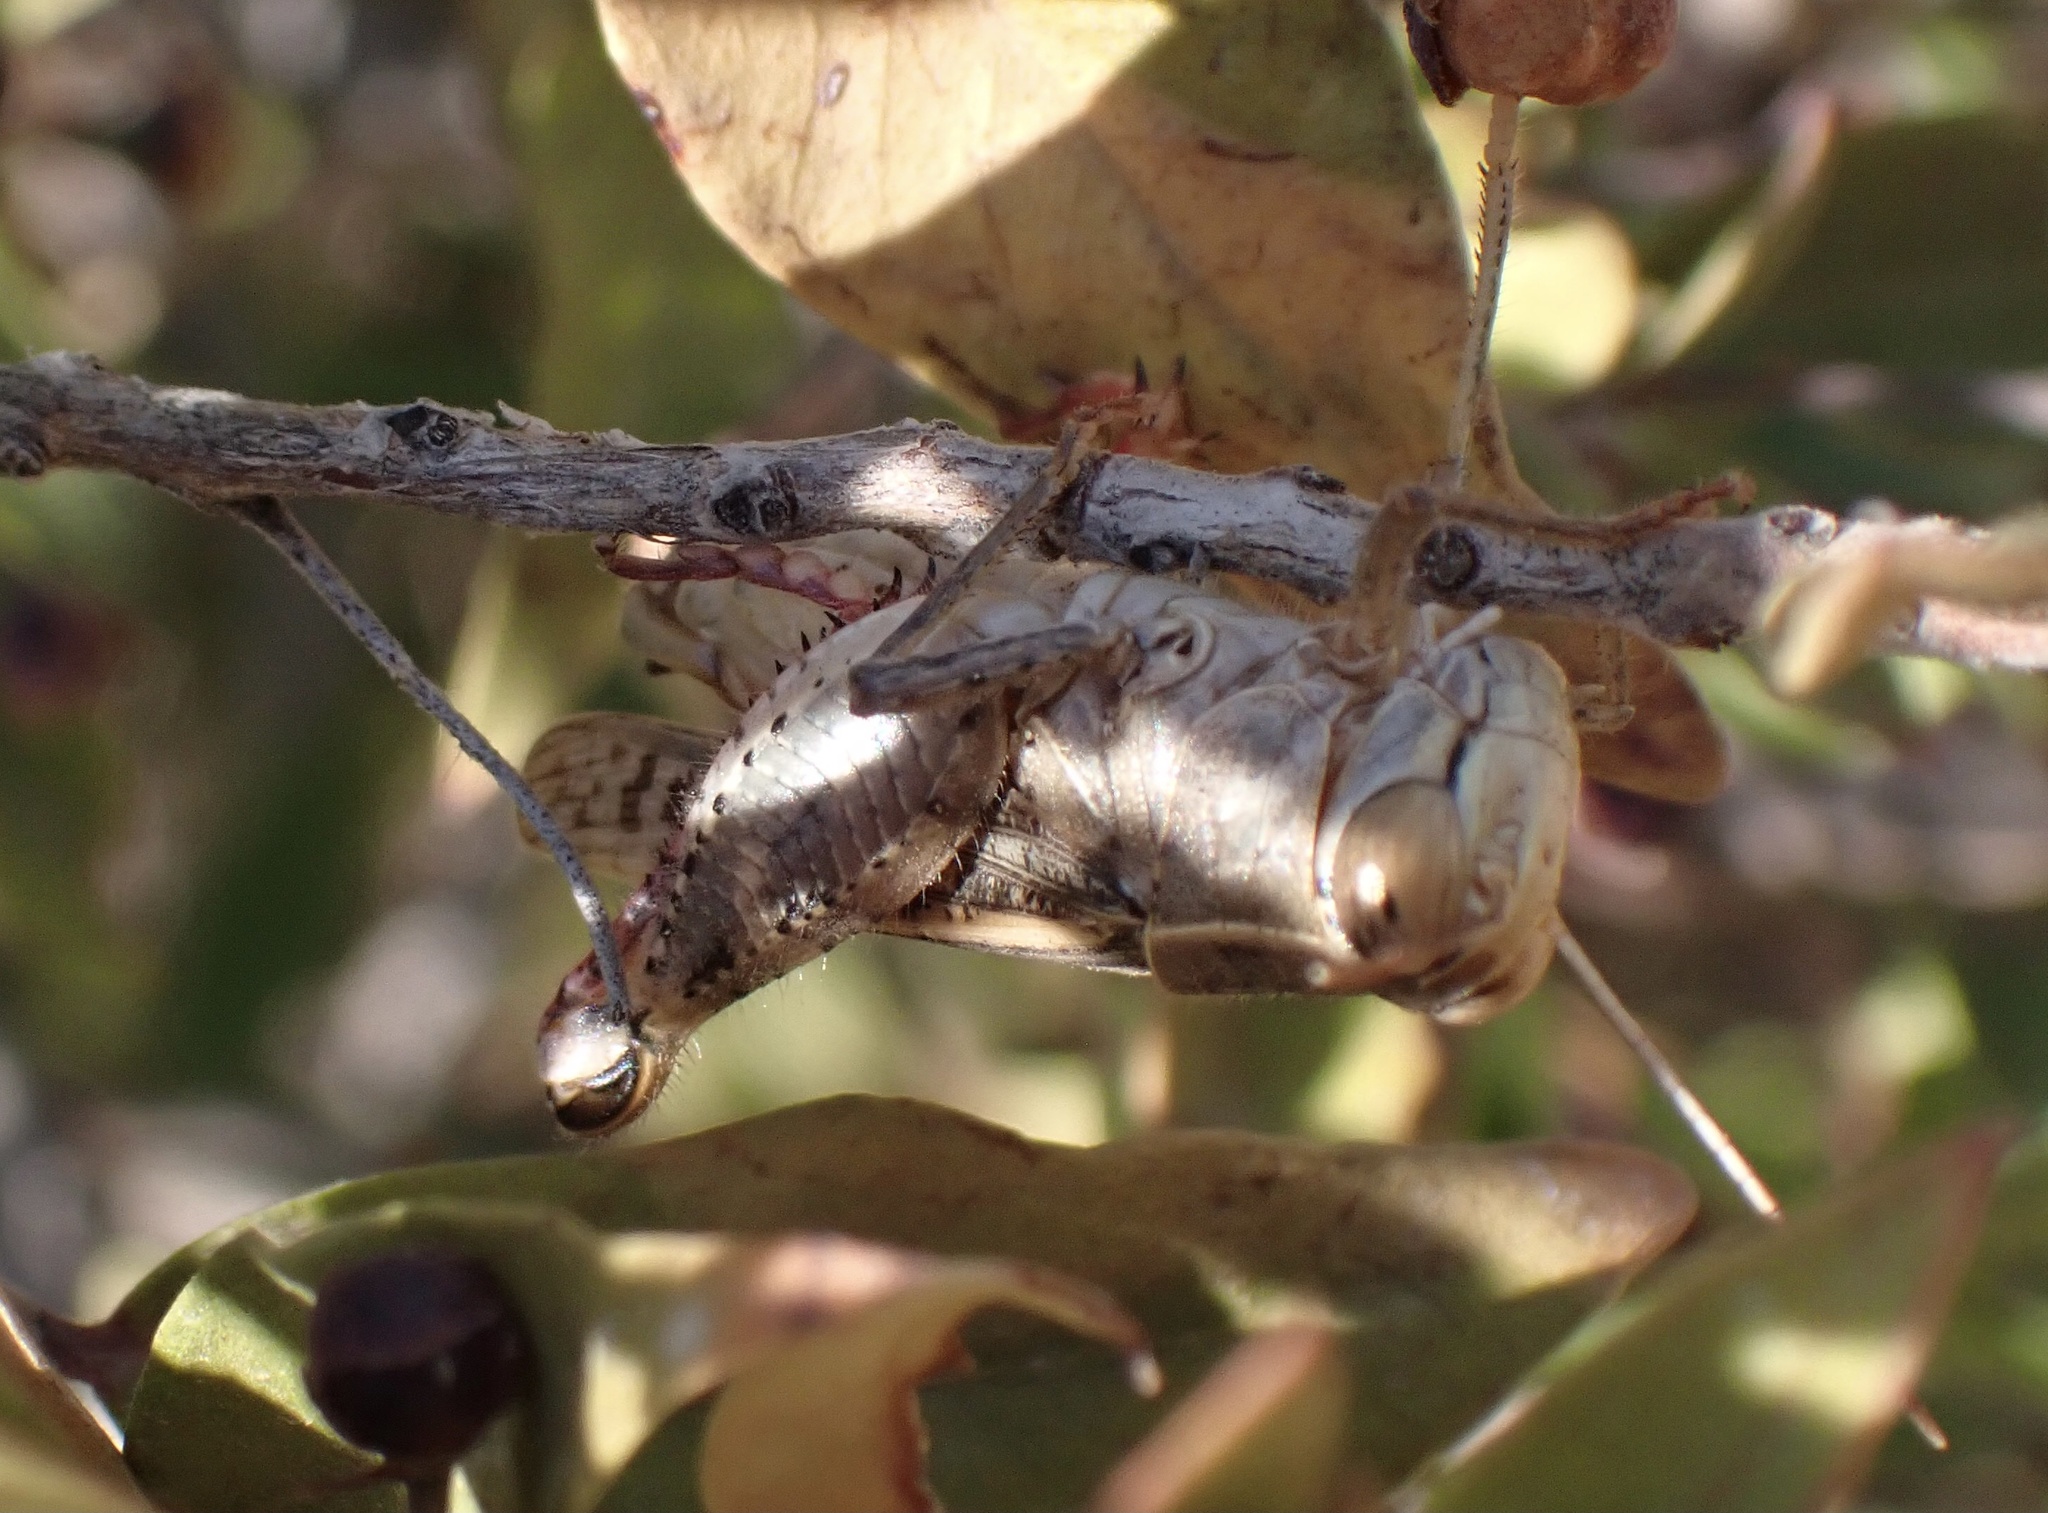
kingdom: Animalia
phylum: Arthropoda
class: Insecta
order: Orthoptera
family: Acrididae
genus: Calliptamus
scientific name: Calliptamus italicus
